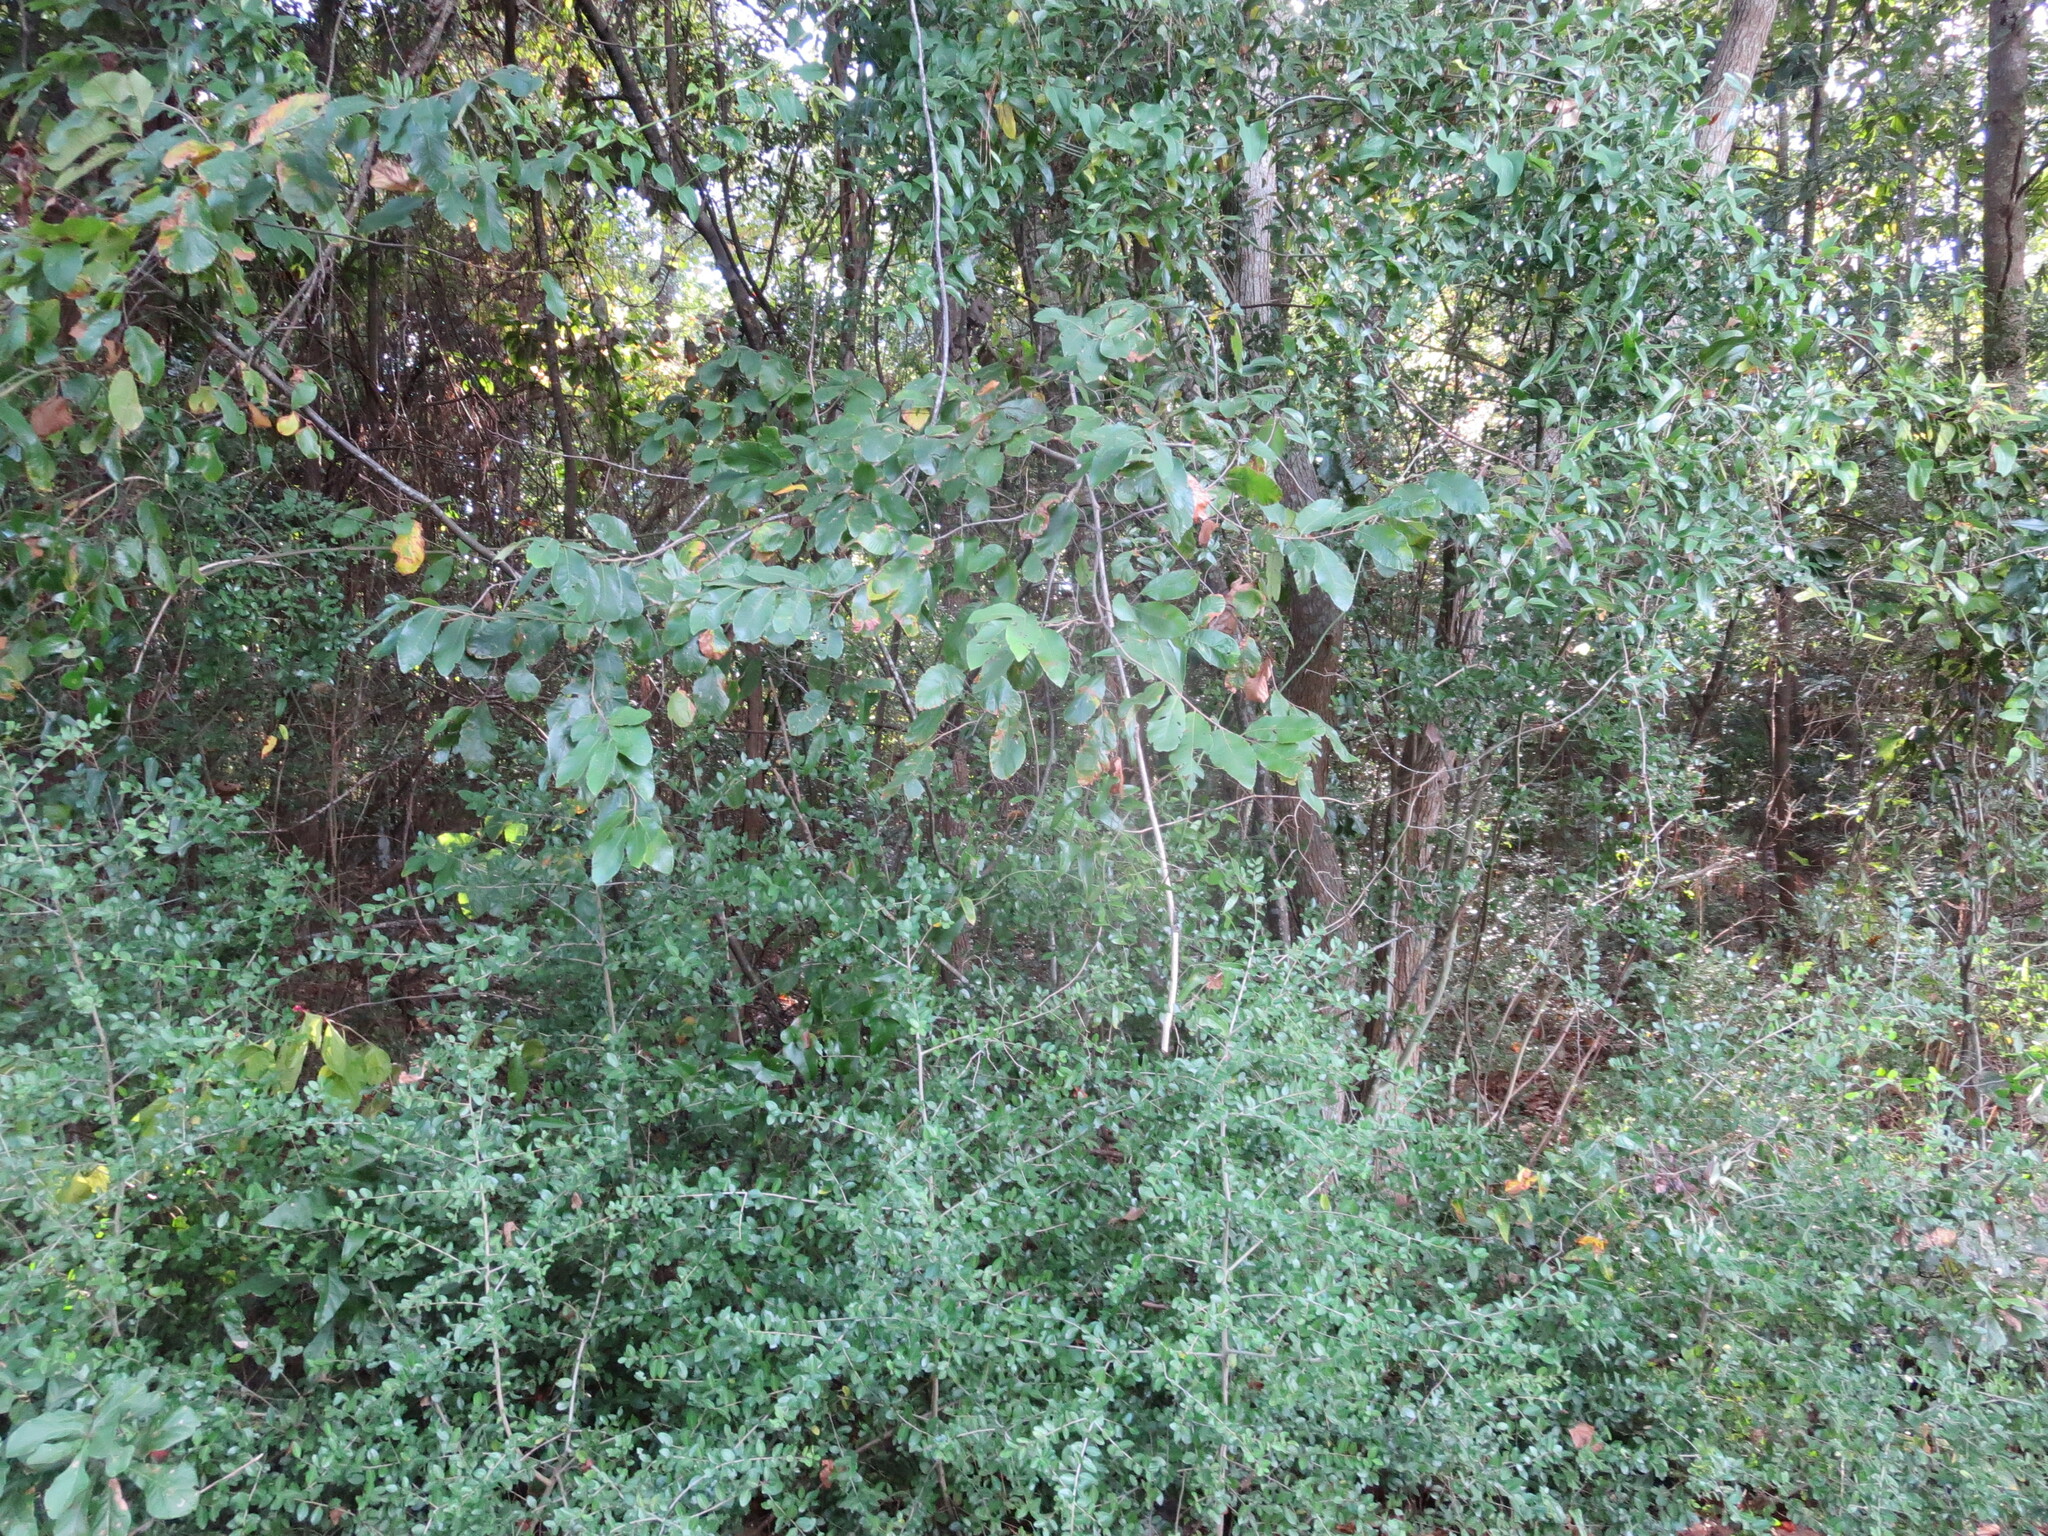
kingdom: Plantae
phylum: Tracheophyta
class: Magnoliopsida
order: Fagales
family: Fagaceae
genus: Castanea
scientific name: Castanea pumila
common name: Chinkapin
